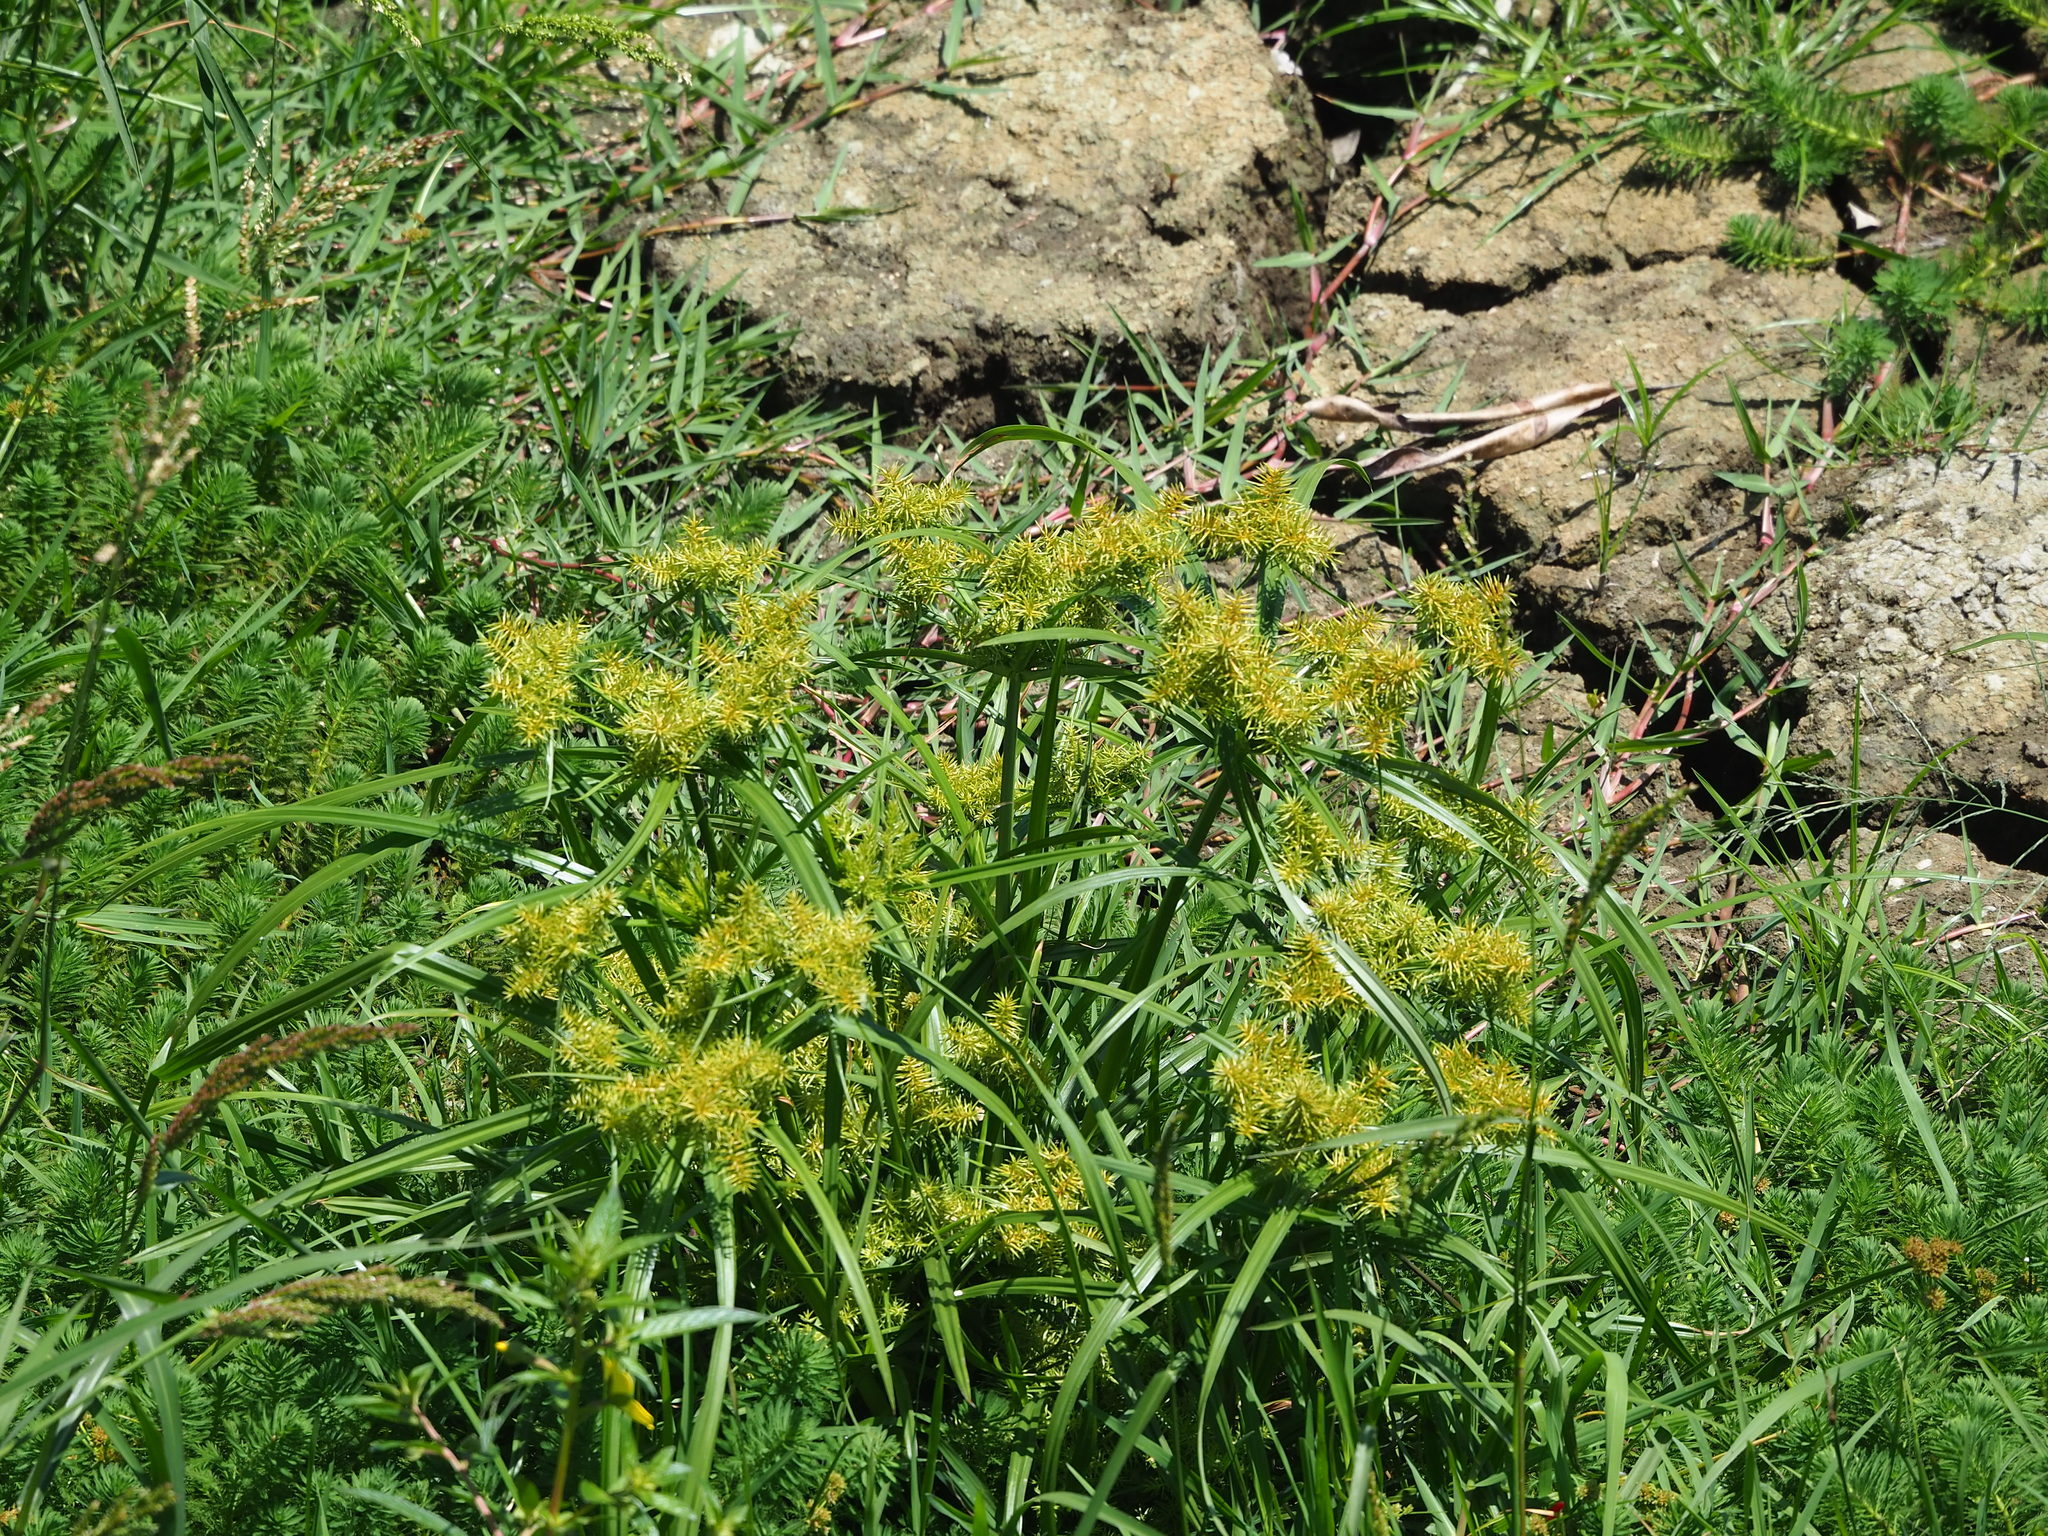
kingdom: Plantae
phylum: Tracheophyta
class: Liliopsida
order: Poales
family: Cyperaceae
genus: Cyperus
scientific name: Cyperus odoratus
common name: Fragrant flatsedge
